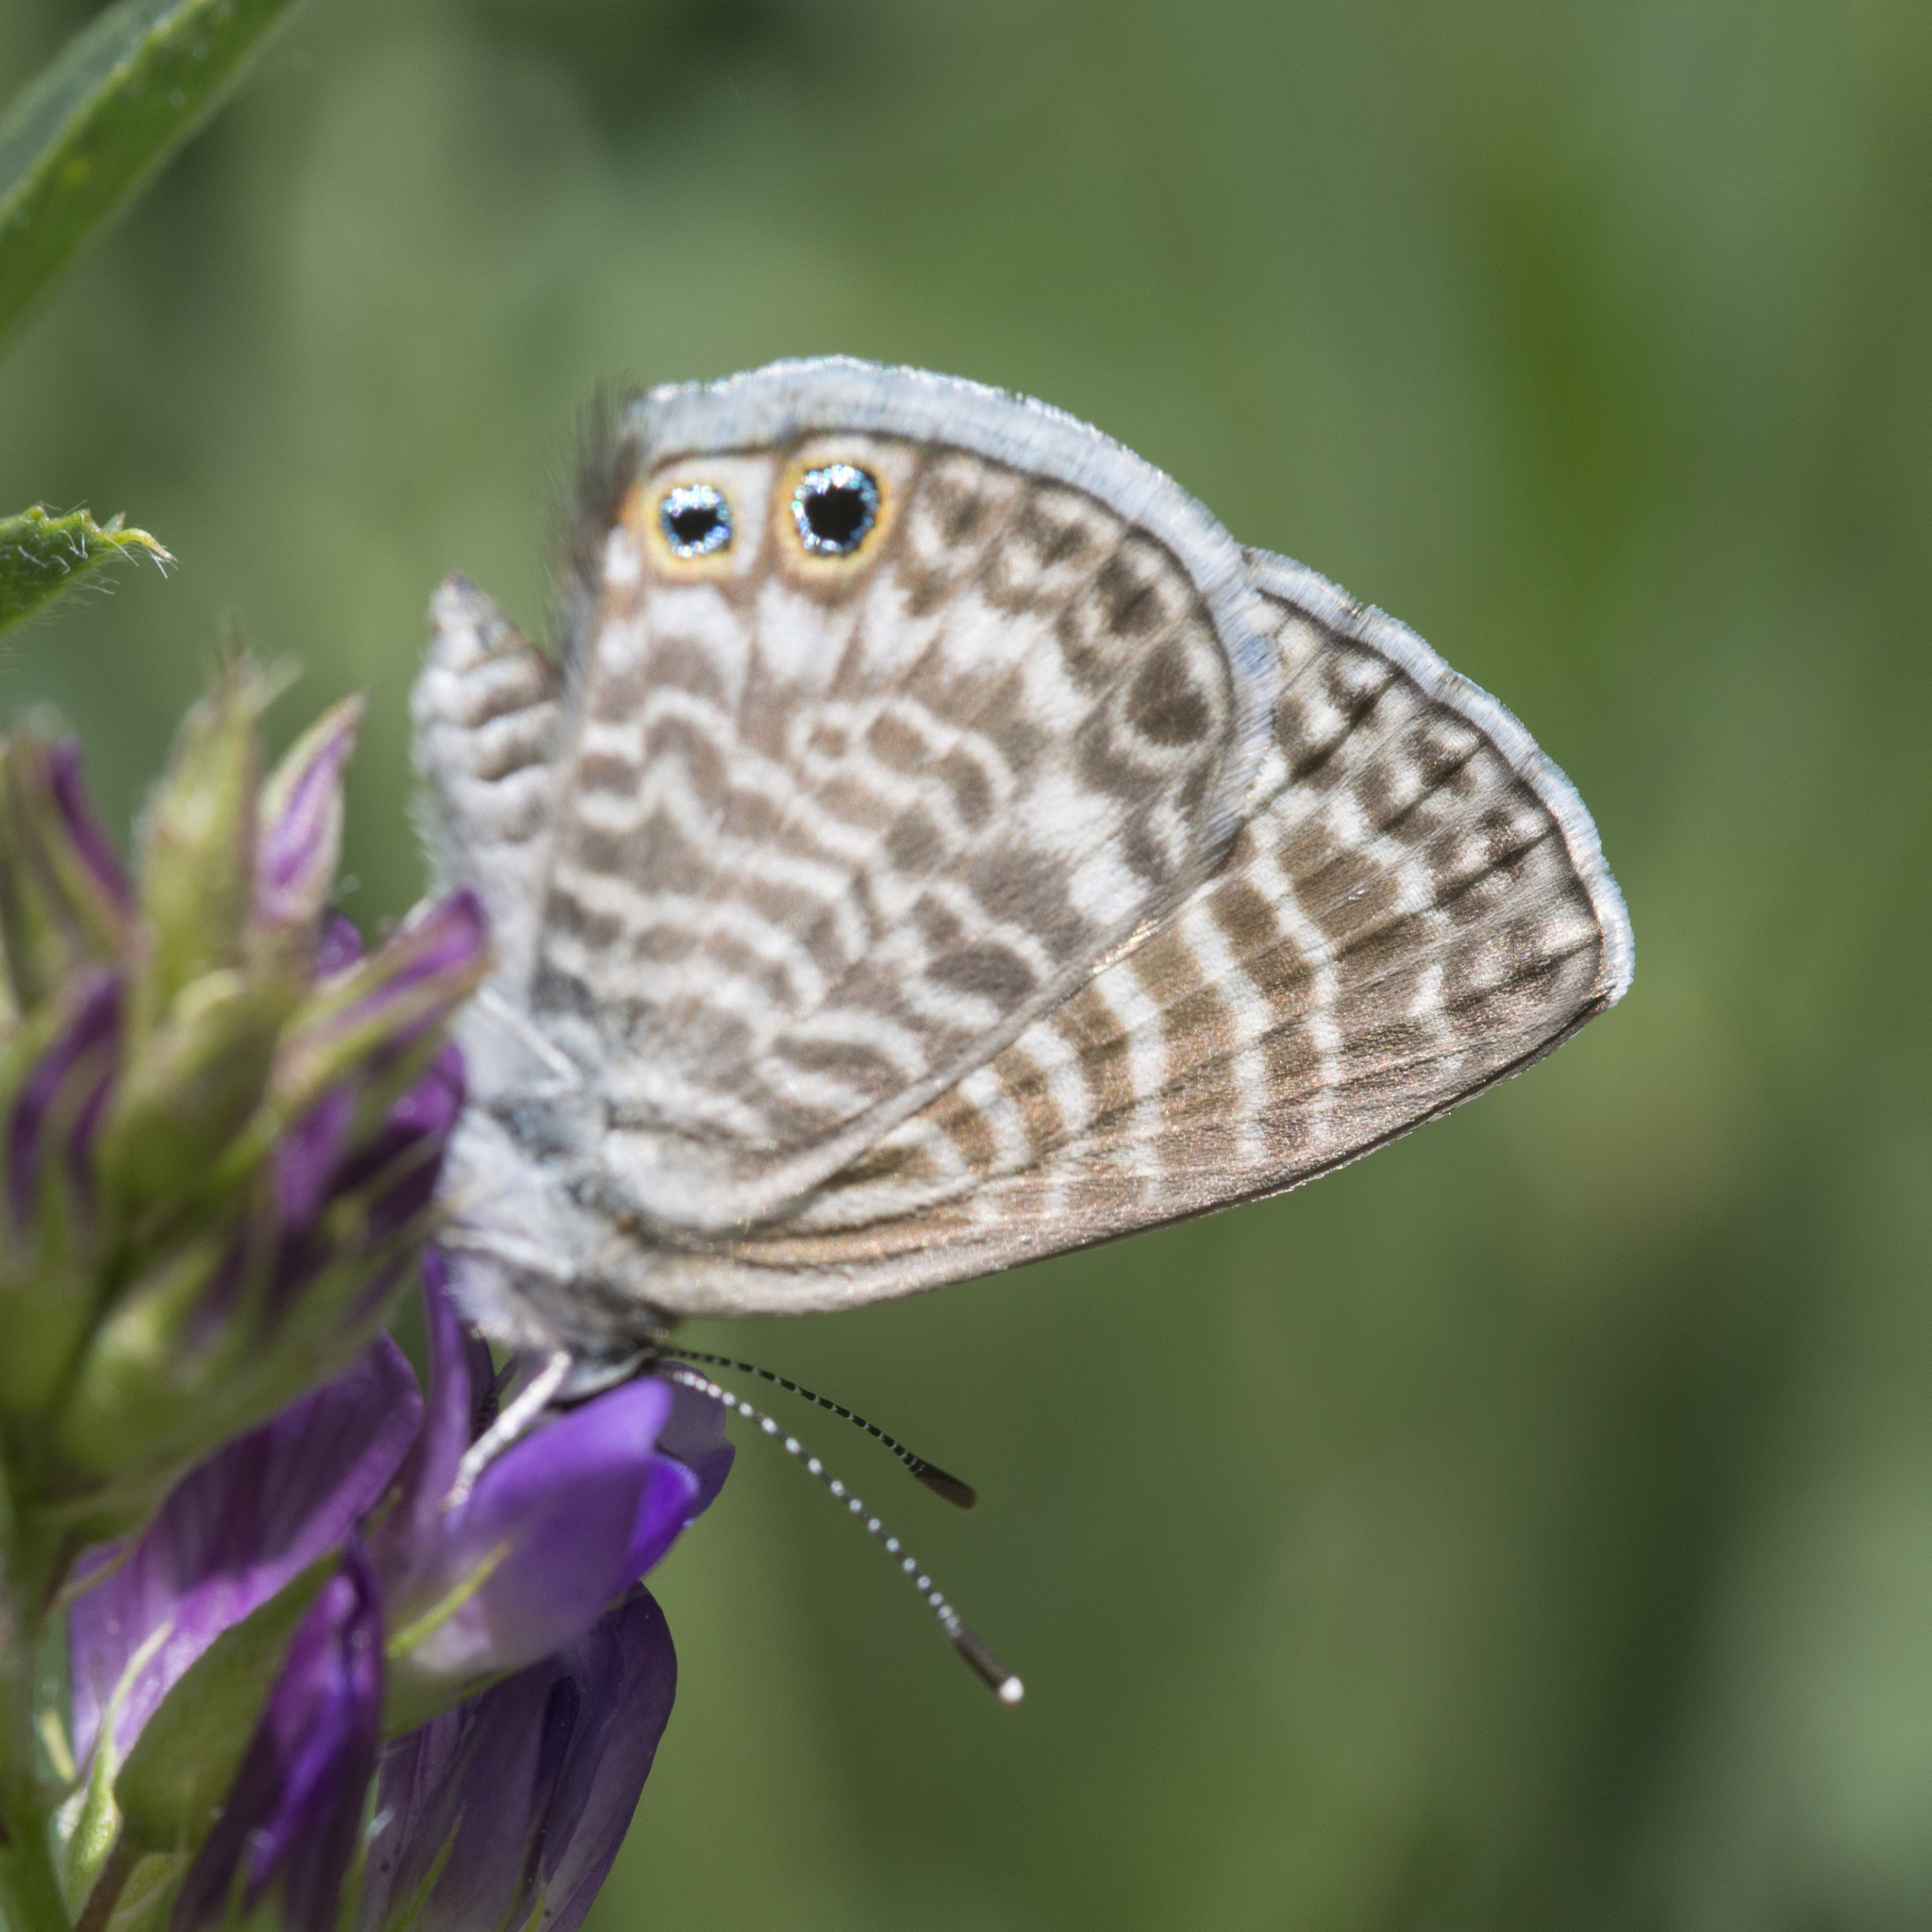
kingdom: Animalia
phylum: Arthropoda
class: Insecta
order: Lepidoptera
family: Lycaenidae
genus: Leptotes
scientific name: Leptotes marina
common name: Marine blue
